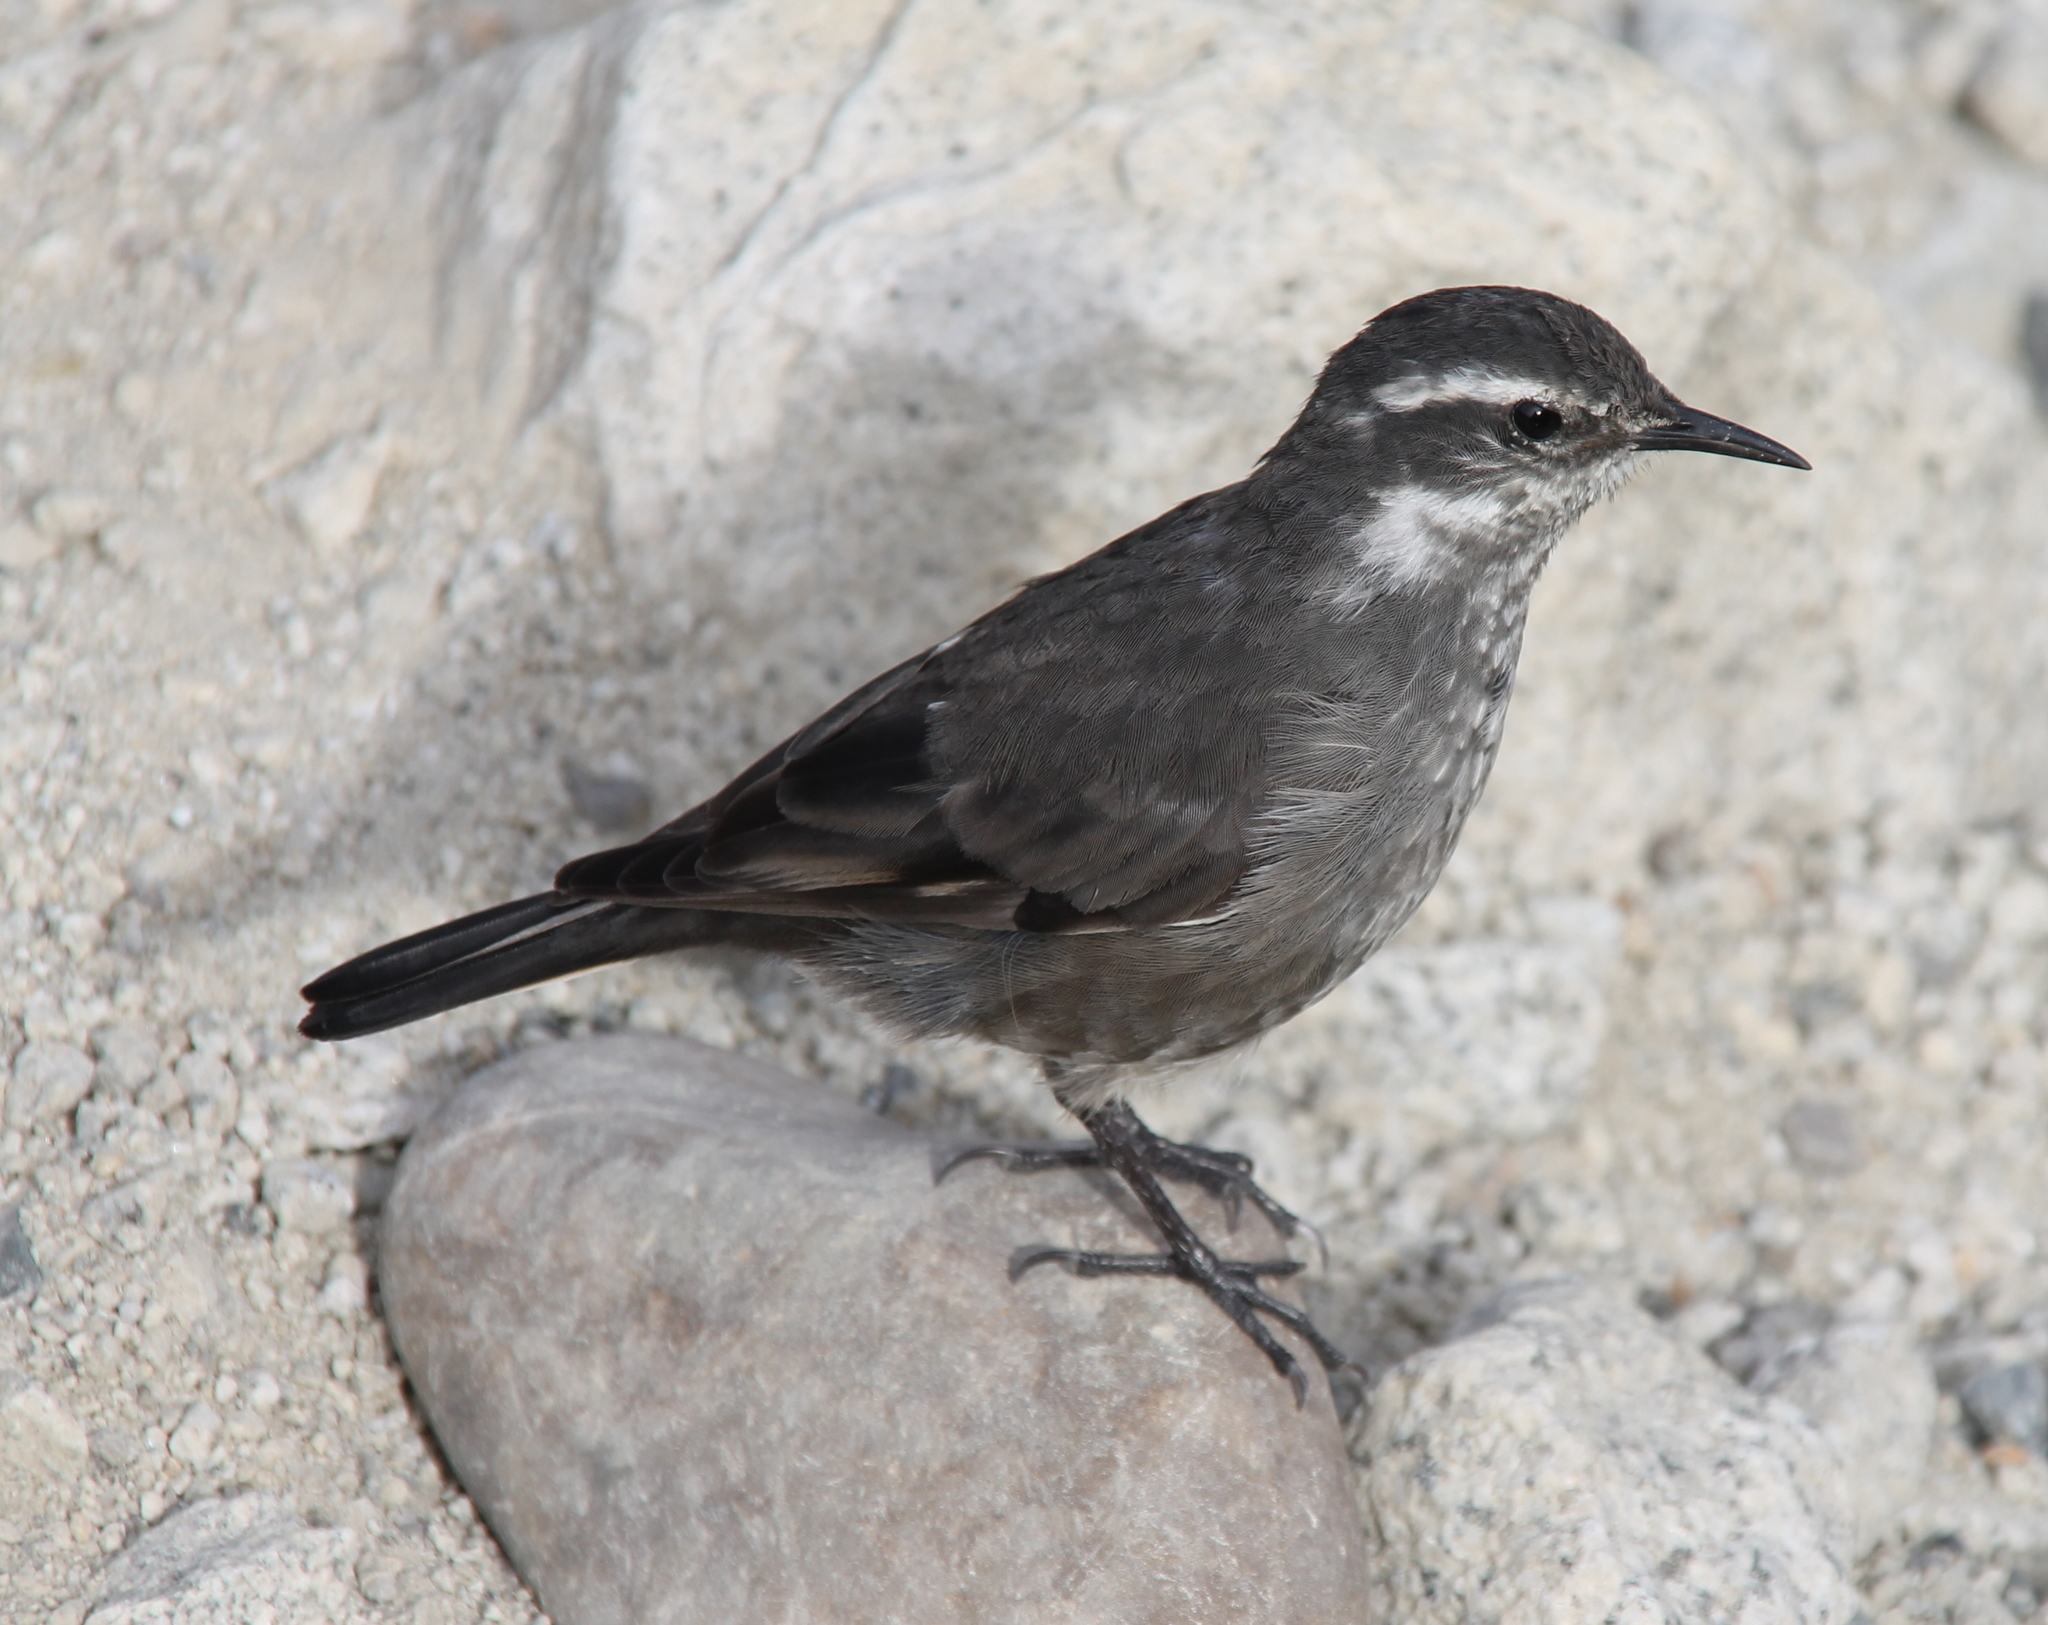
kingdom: Animalia
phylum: Chordata
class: Aves
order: Passeriformes
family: Furnariidae
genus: Cinclodes
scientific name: Cinclodes oustaleti
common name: Grey-flanked cinclodes
